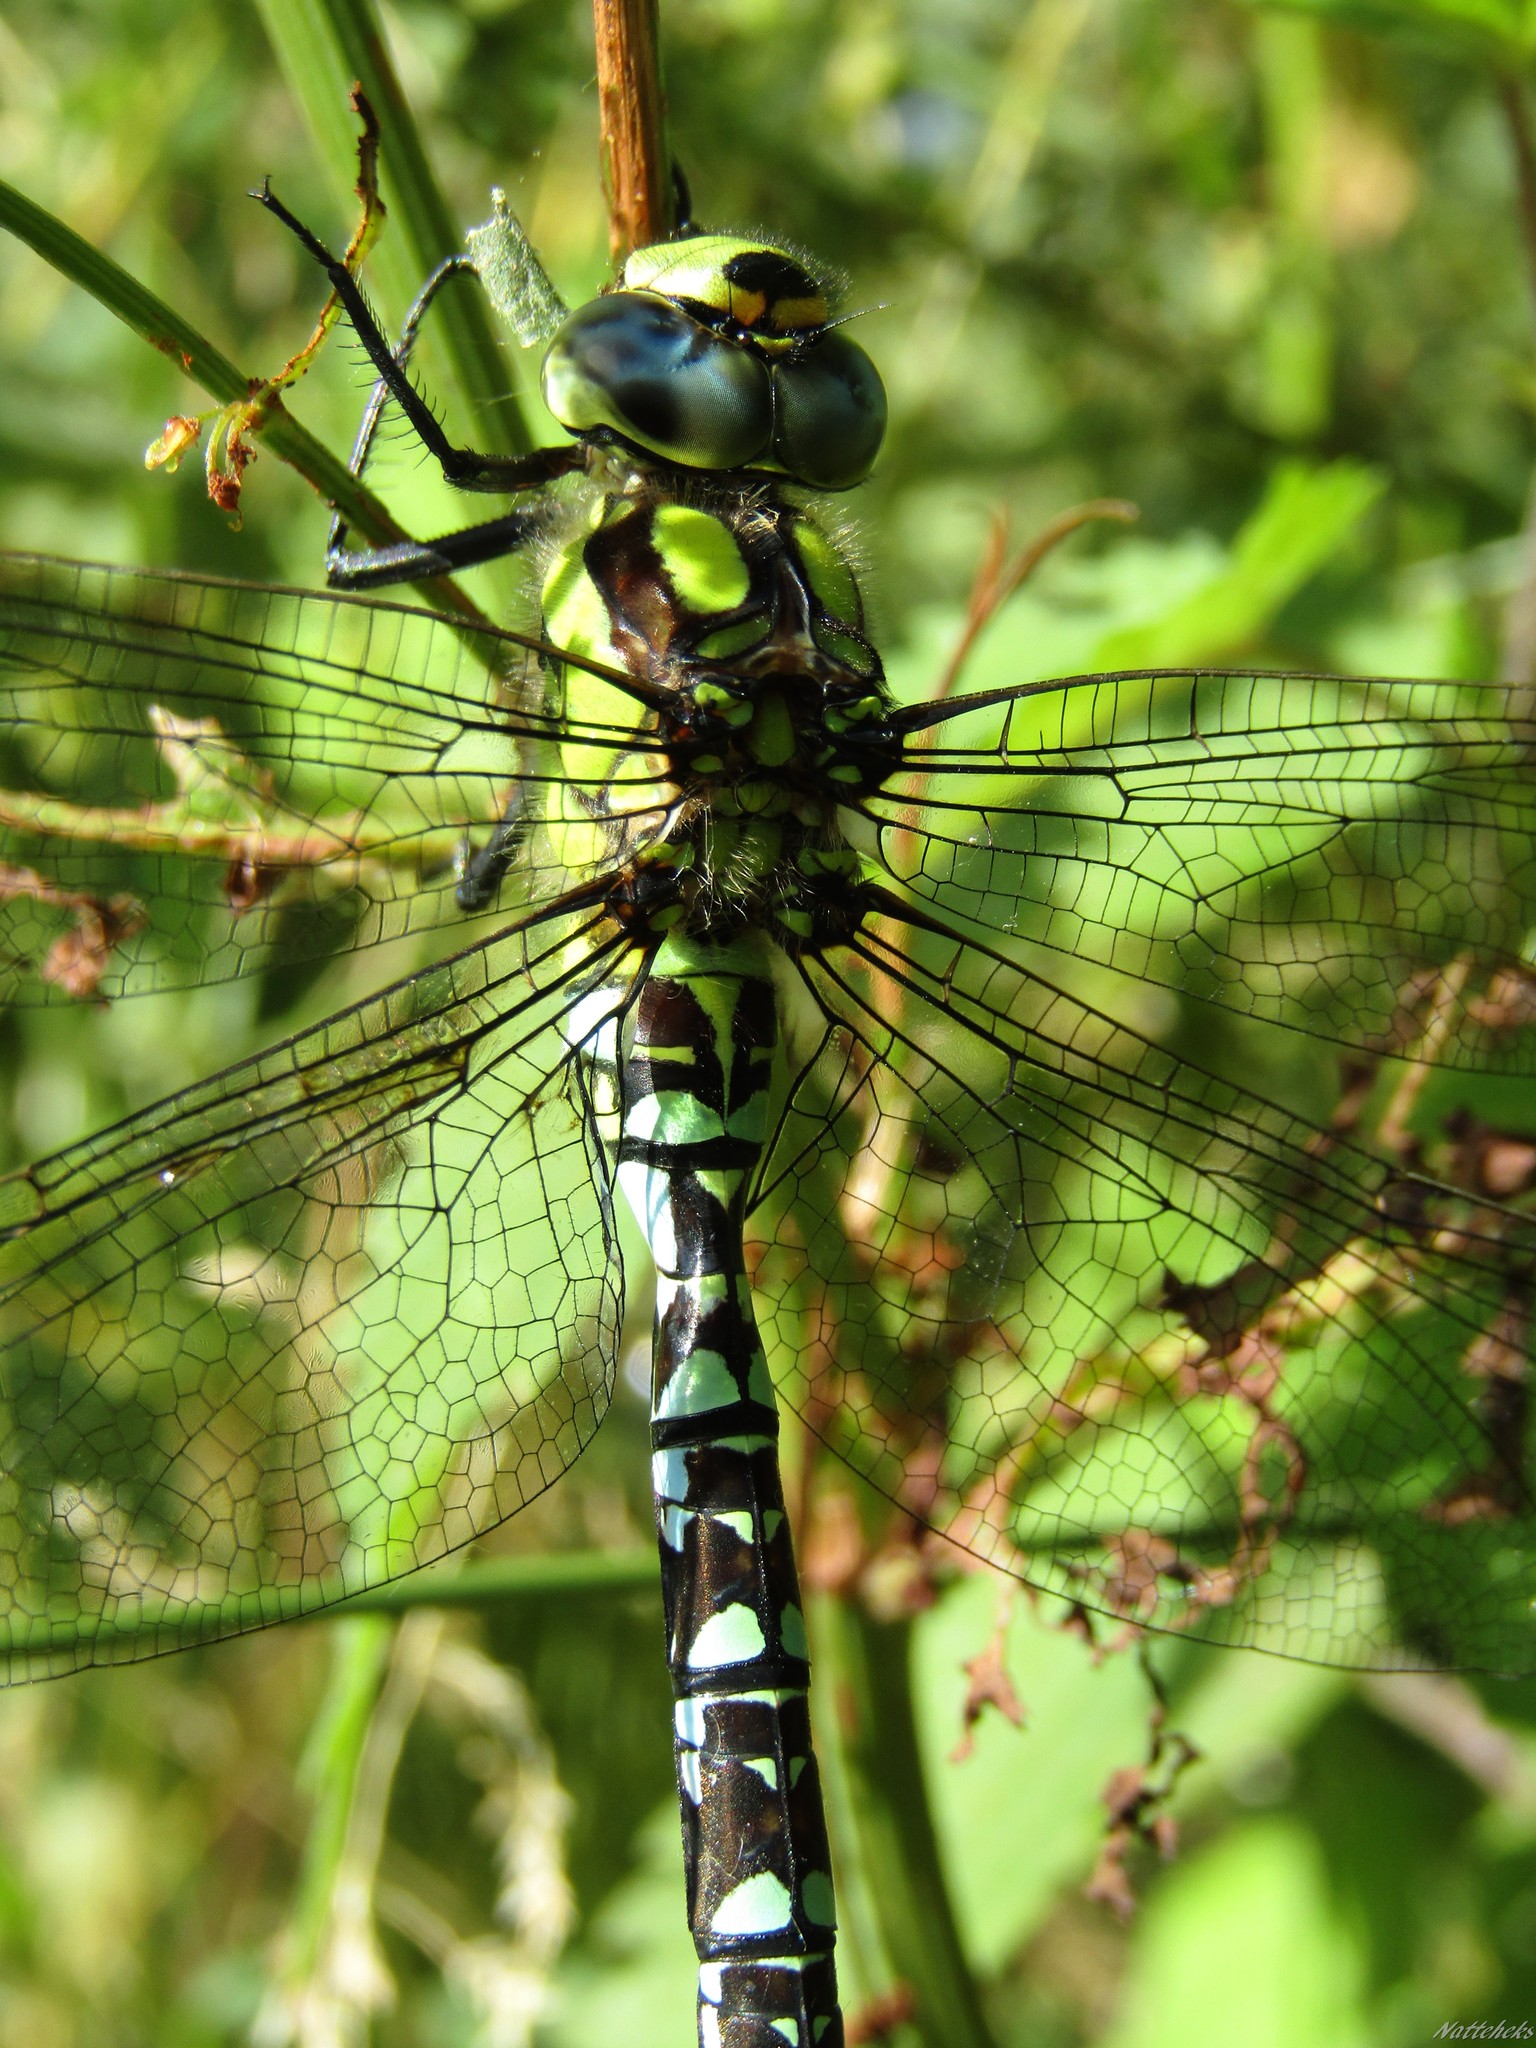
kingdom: Animalia
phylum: Arthropoda
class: Insecta
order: Odonata
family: Aeshnidae
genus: Aeshna
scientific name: Aeshna cyanea
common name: Southern hawker
